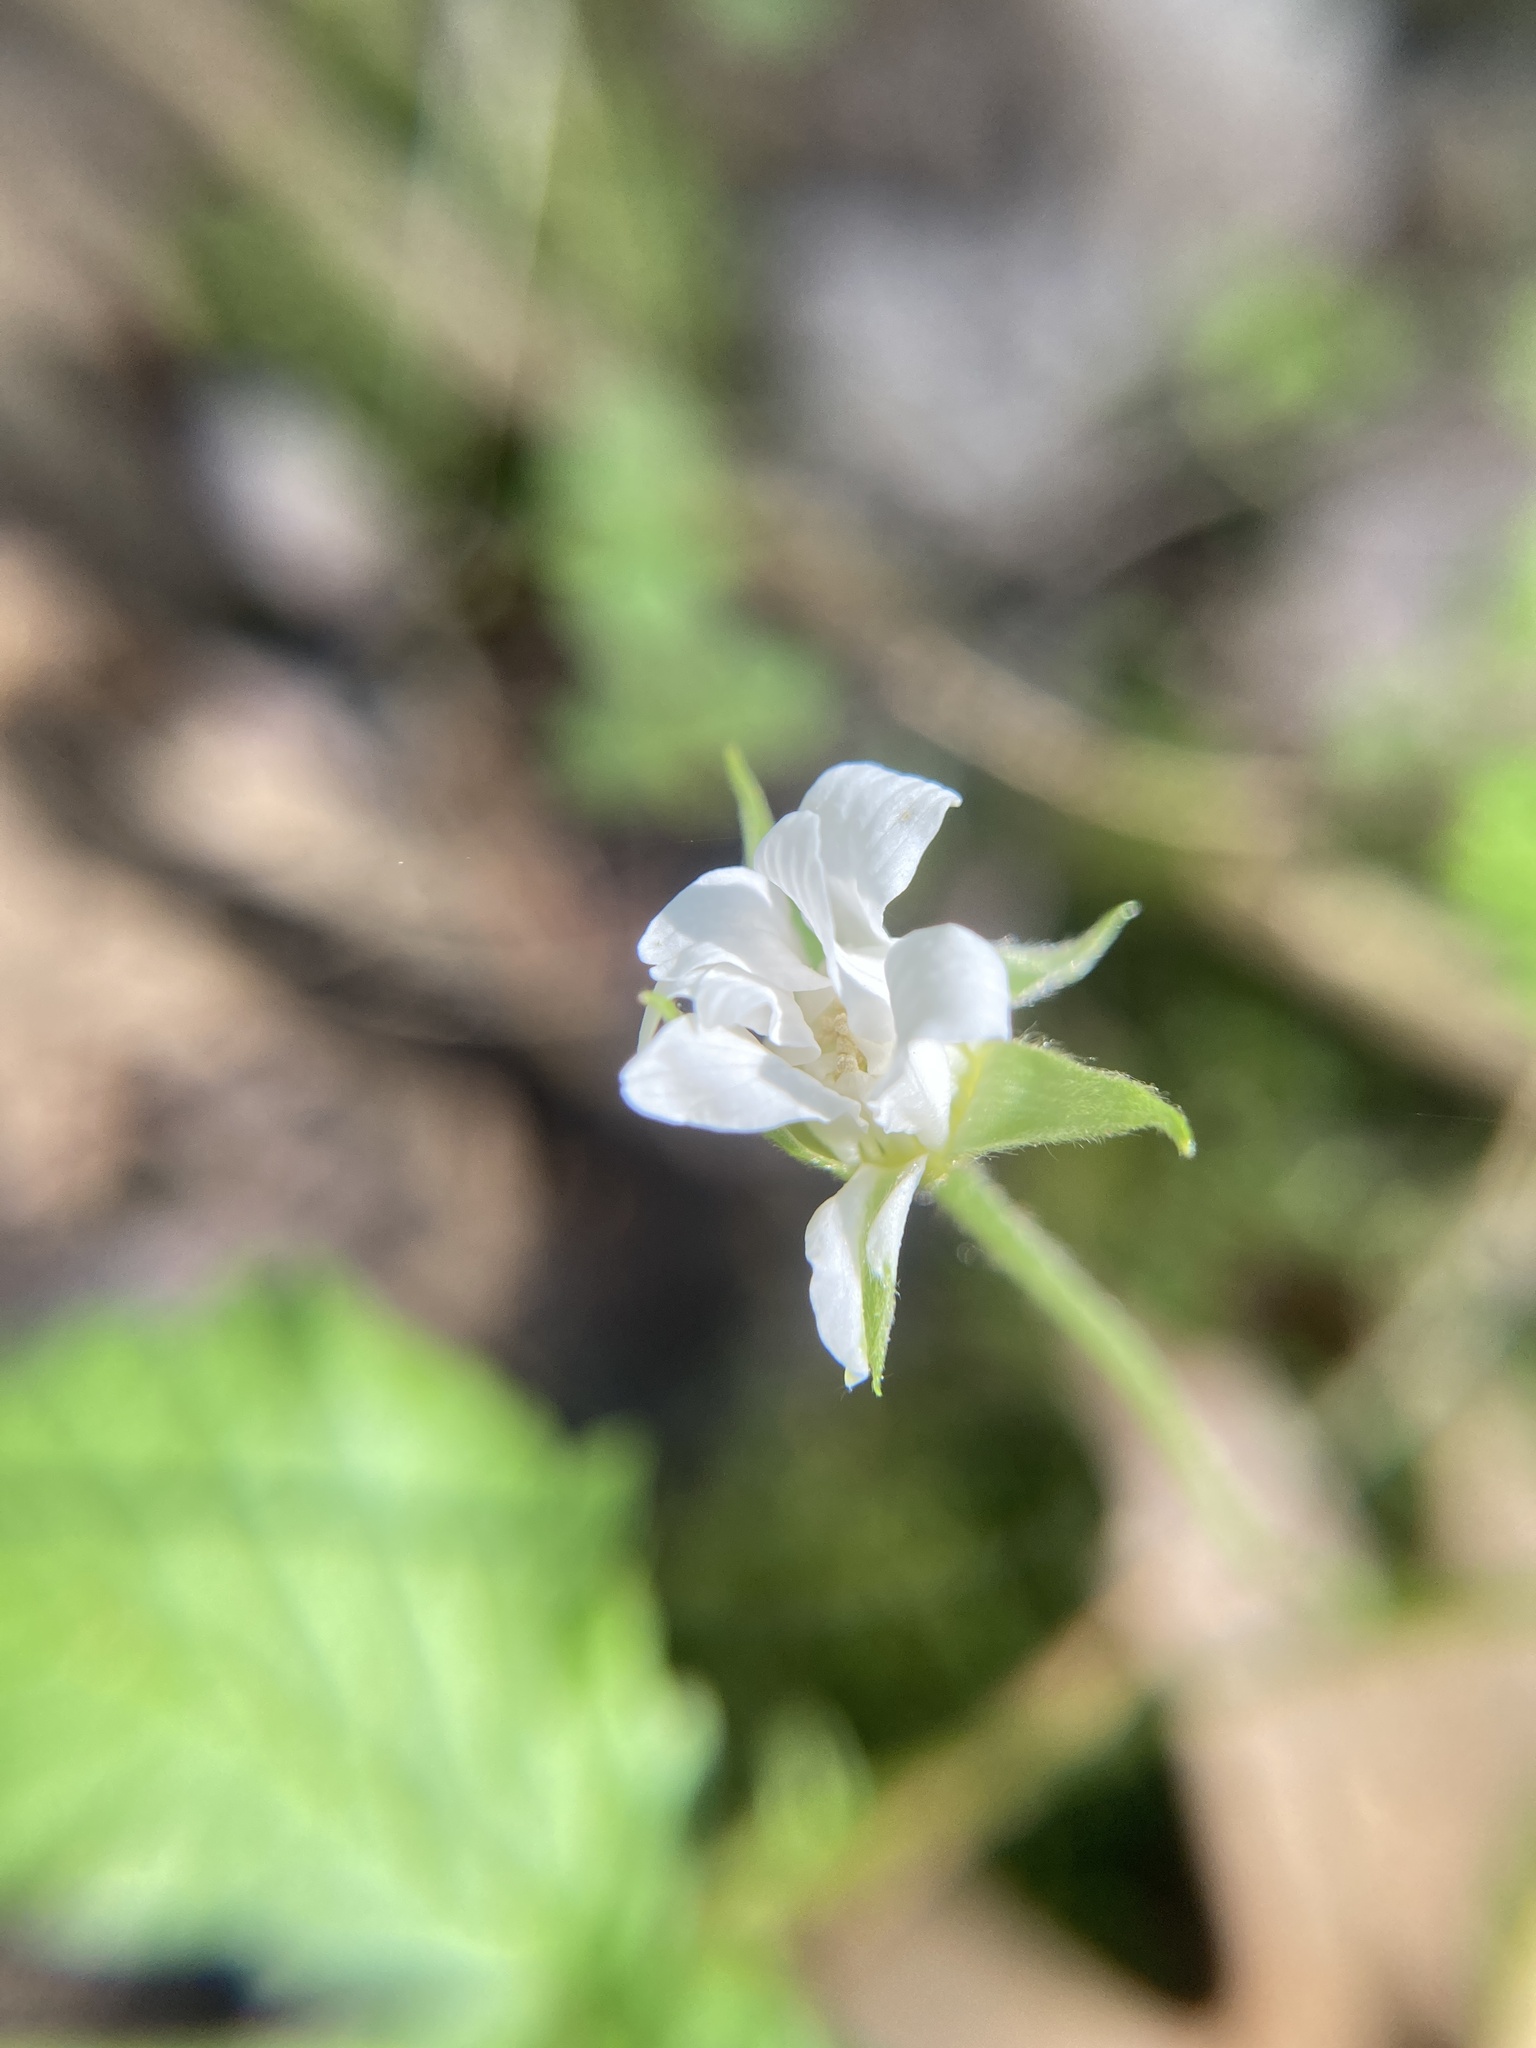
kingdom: Plantae
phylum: Tracheophyta
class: Magnoliopsida
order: Rosales
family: Rosaceae
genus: Rubus
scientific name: Rubus pubescens
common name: Dwarf raspberry
